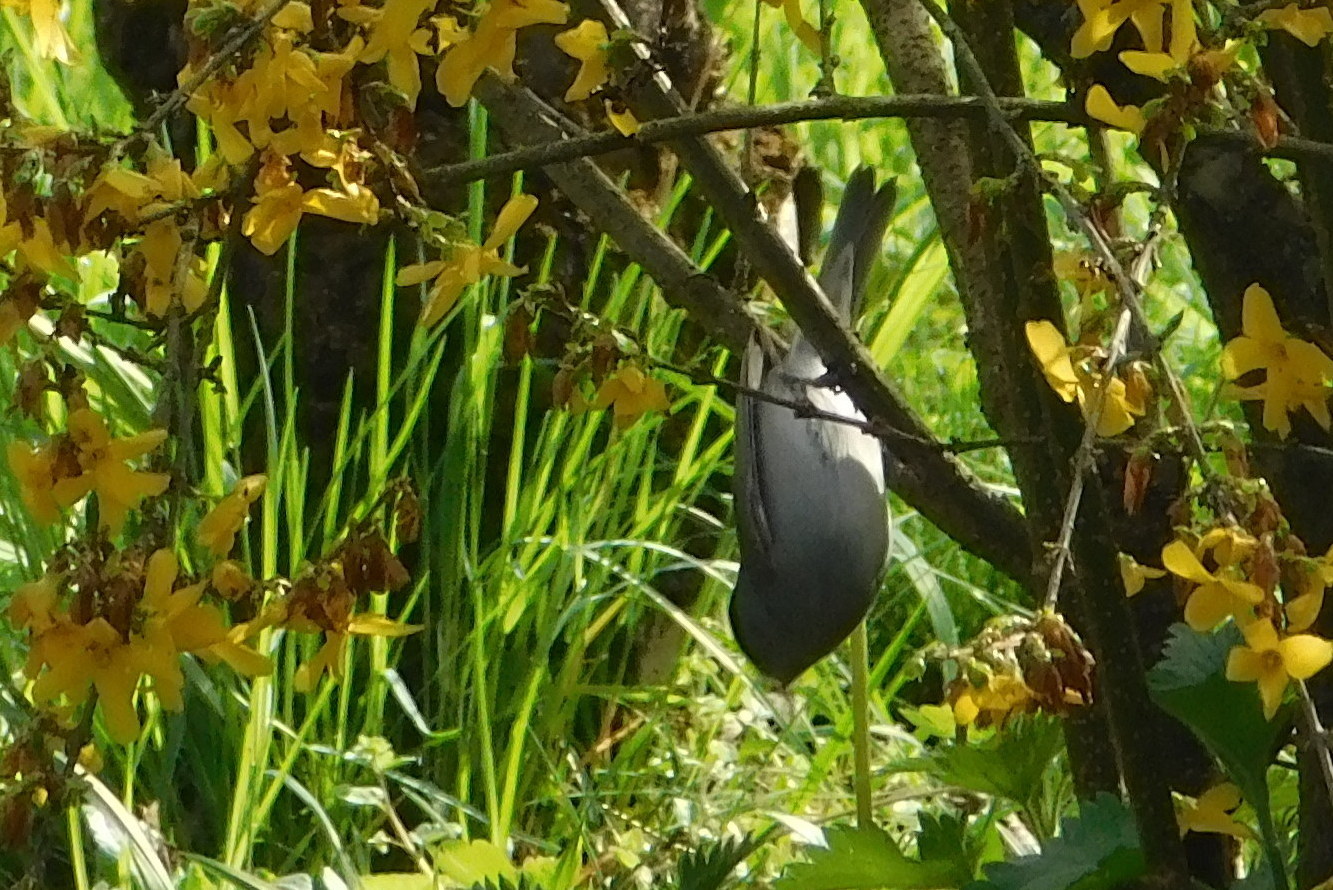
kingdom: Animalia
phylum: Chordata
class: Aves
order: Passeriformes
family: Sylviidae
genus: Sylvia
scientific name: Sylvia atricapilla
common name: Eurasian blackcap
